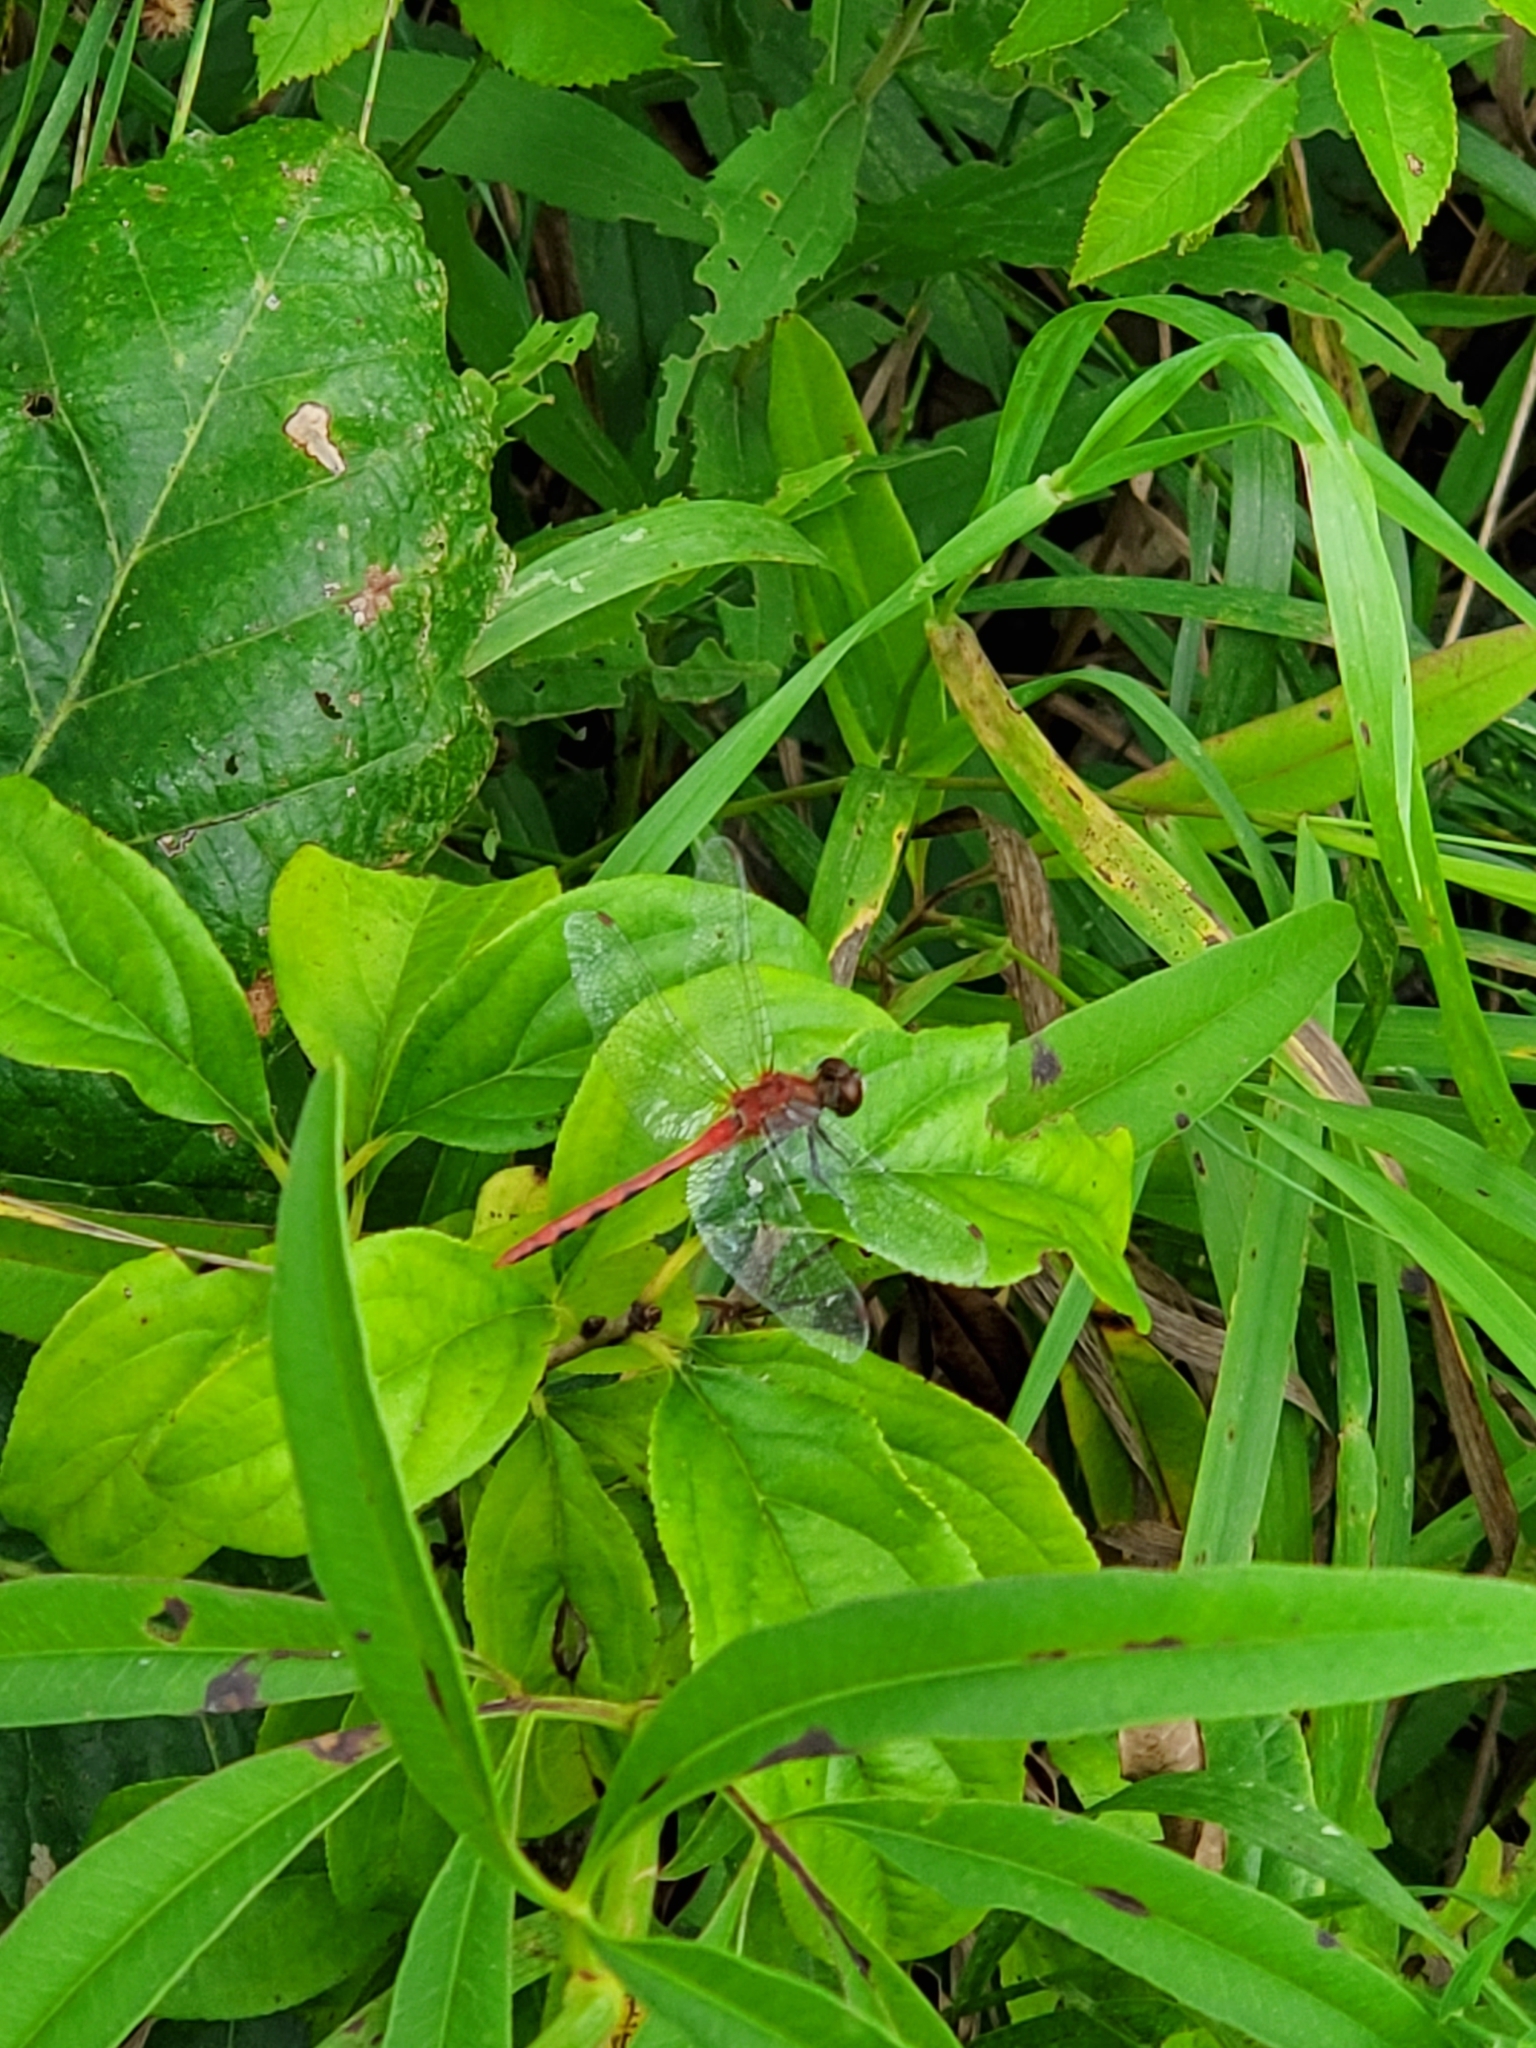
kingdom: Animalia
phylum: Arthropoda
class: Insecta
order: Odonata
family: Libellulidae
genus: Sympetrum
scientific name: Sympetrum obtrusum
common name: White-faced meadowhawk
